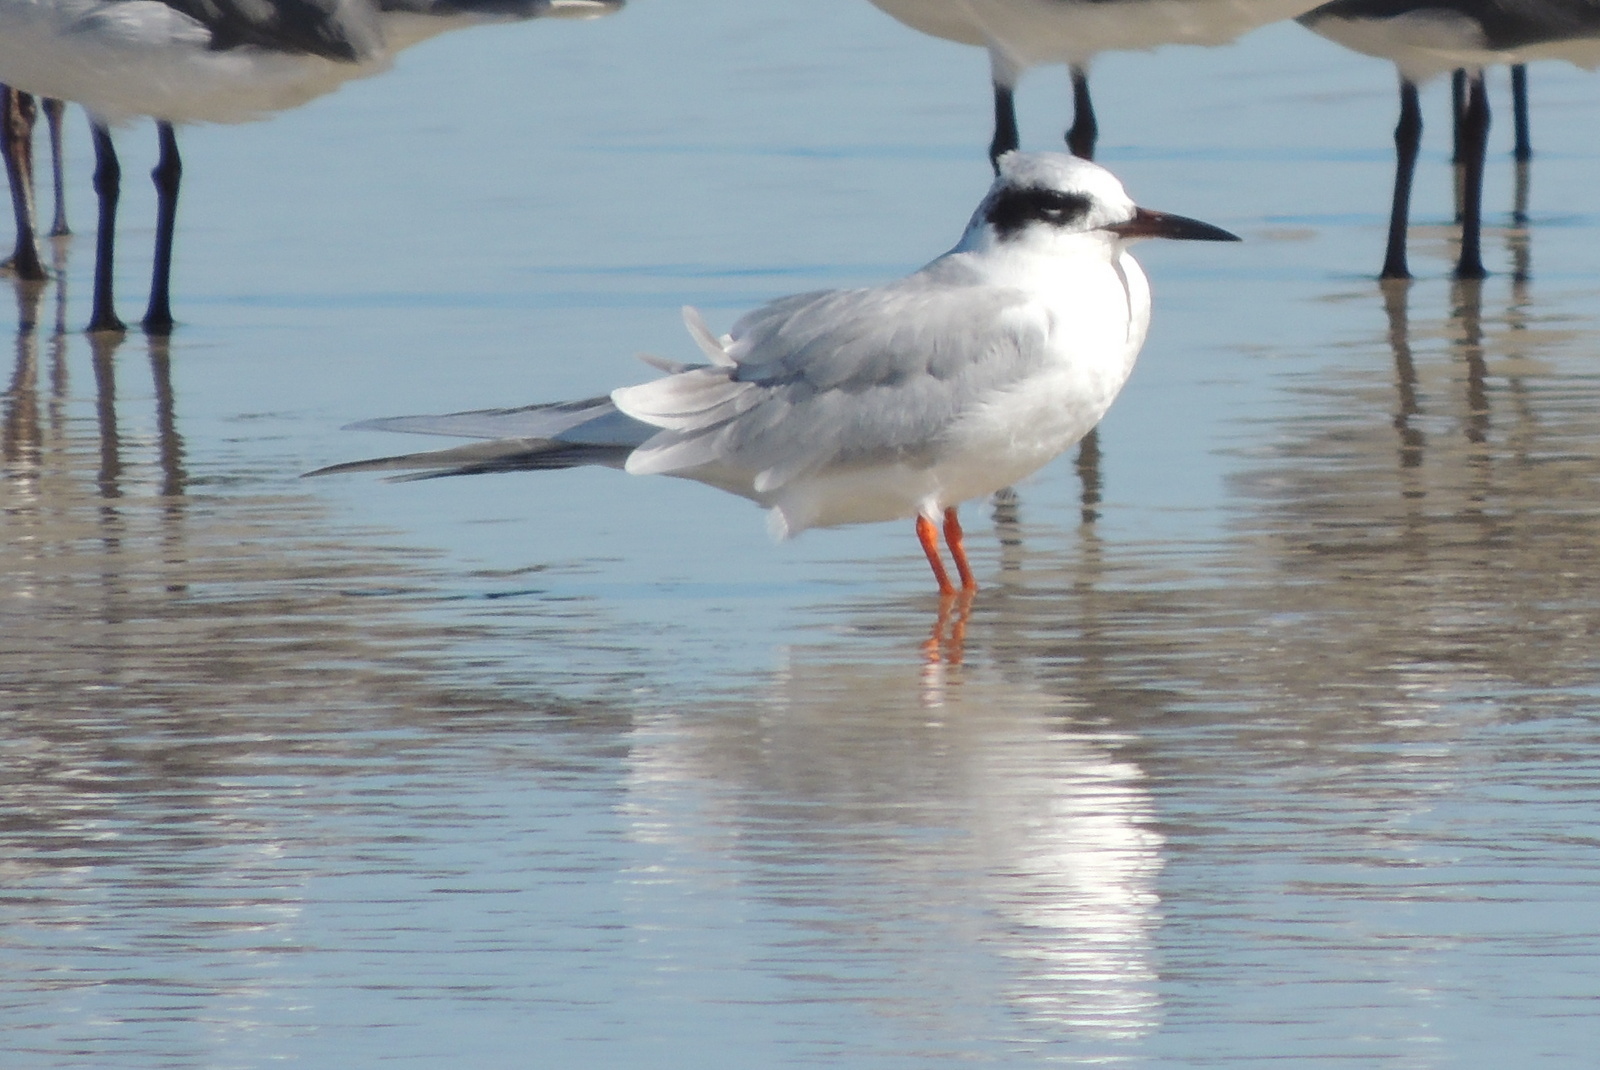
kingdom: Animalia
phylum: Chordata
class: Aves
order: Charadriiformes
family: Laridae
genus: Sterna
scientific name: Sterna forsteri
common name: Forster's tern
